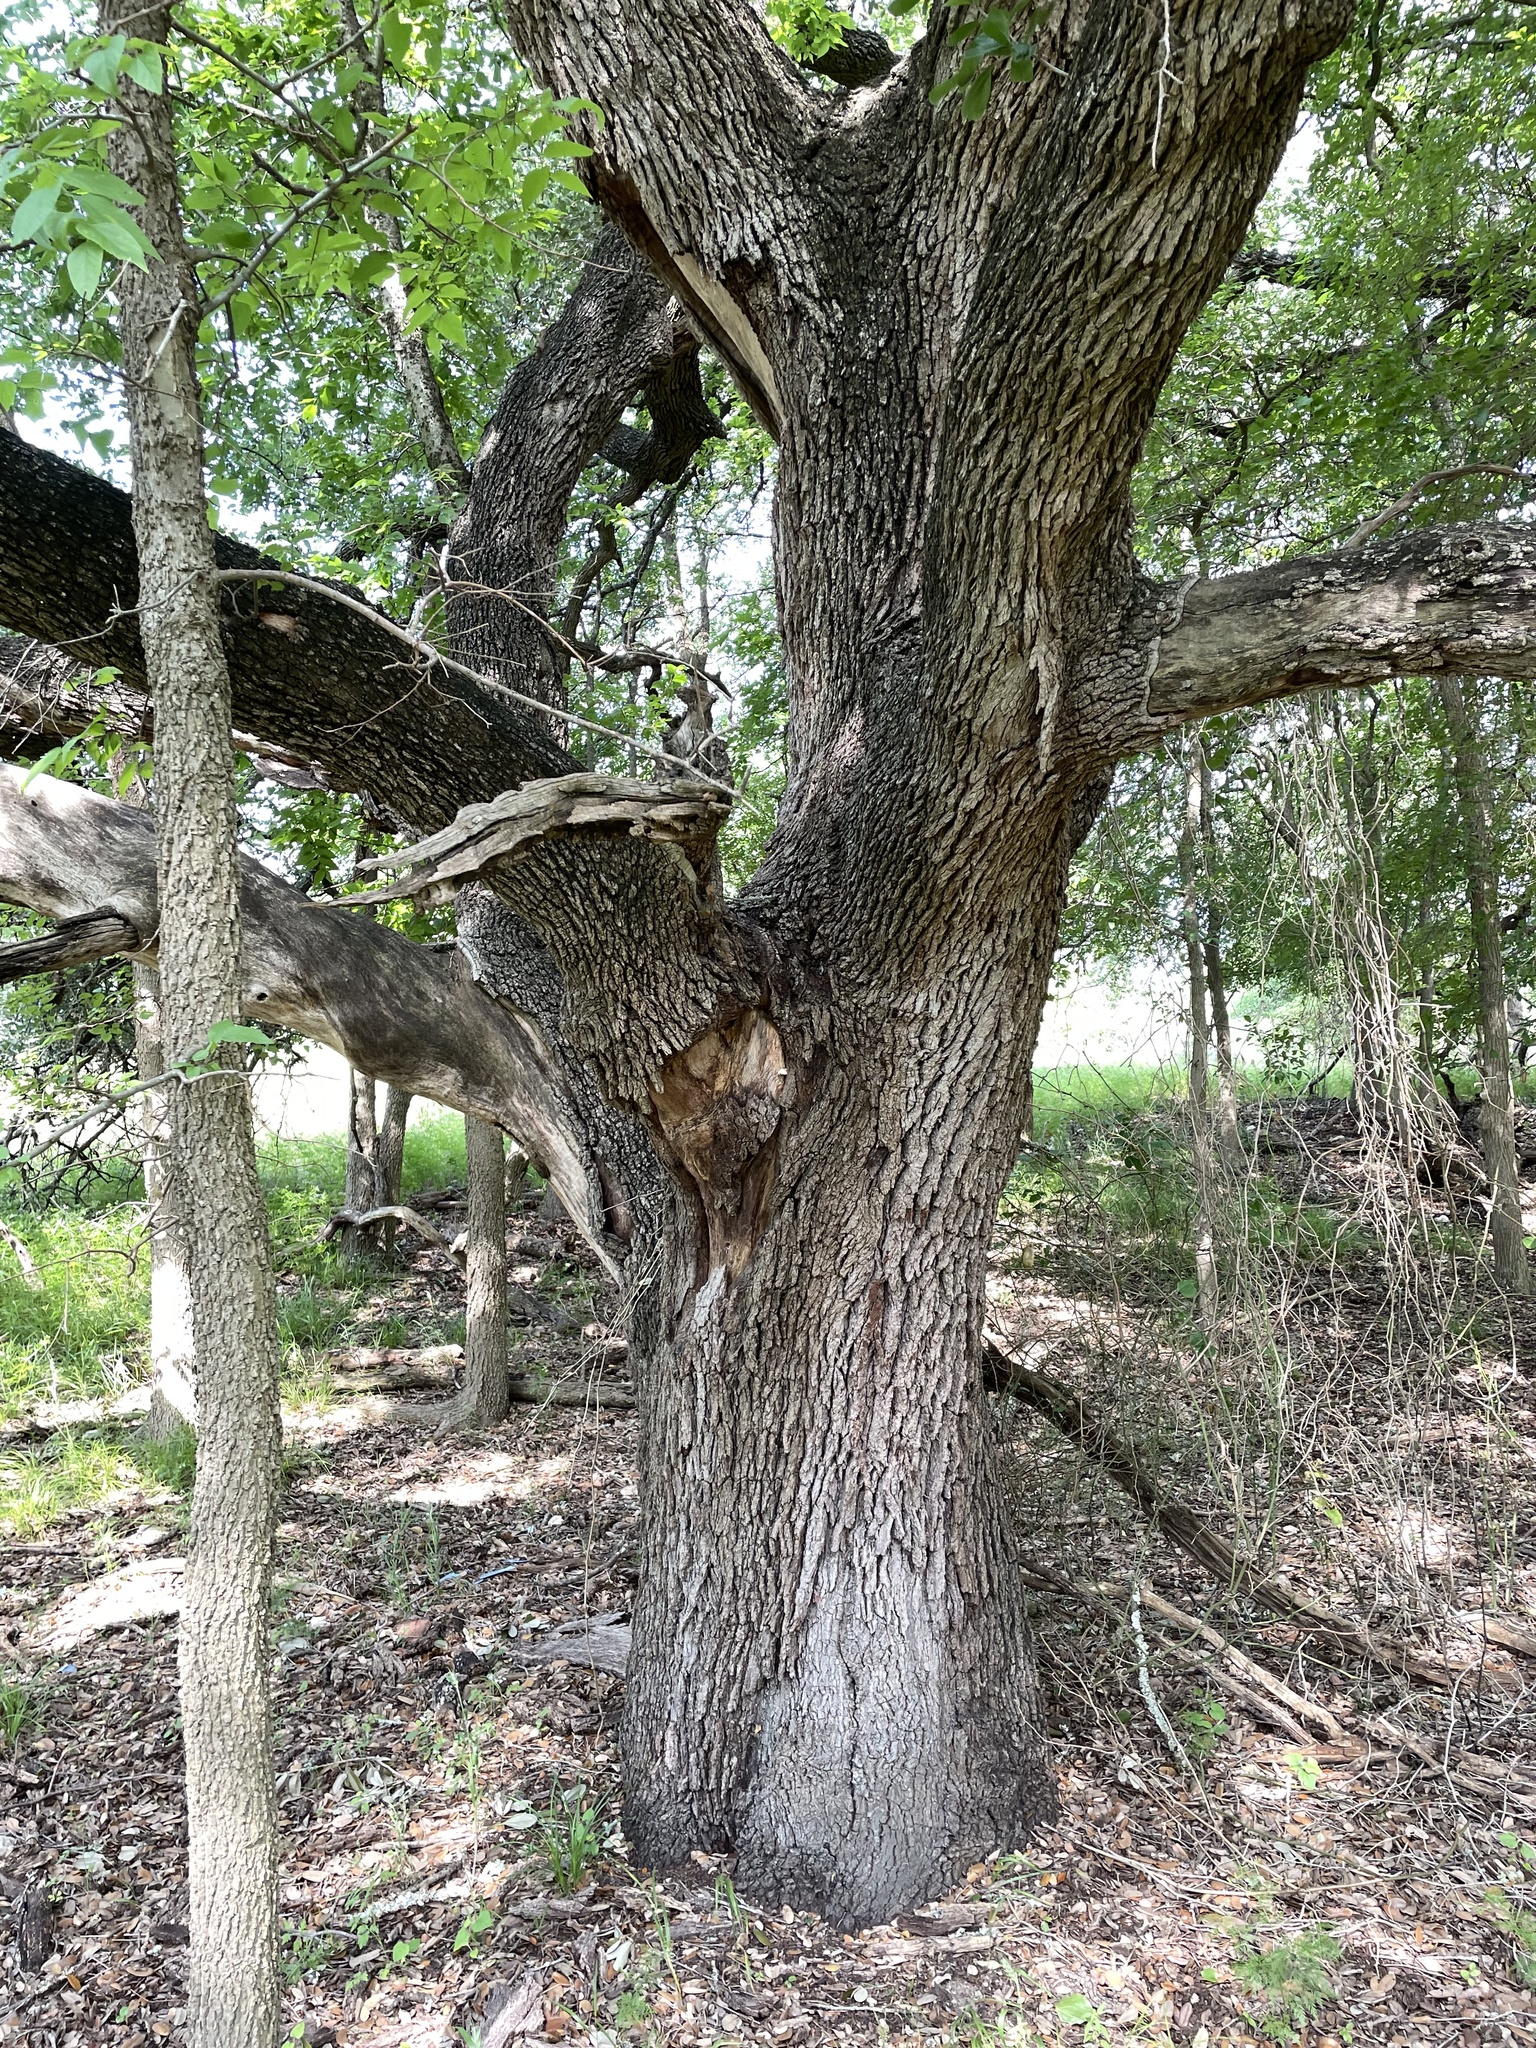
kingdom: Plantae
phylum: Tracheophyta
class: Magnoliopsida
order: Fagales
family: Fagaceae
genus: Quercus
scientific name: Quercus fusiformis
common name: Texas live oak
